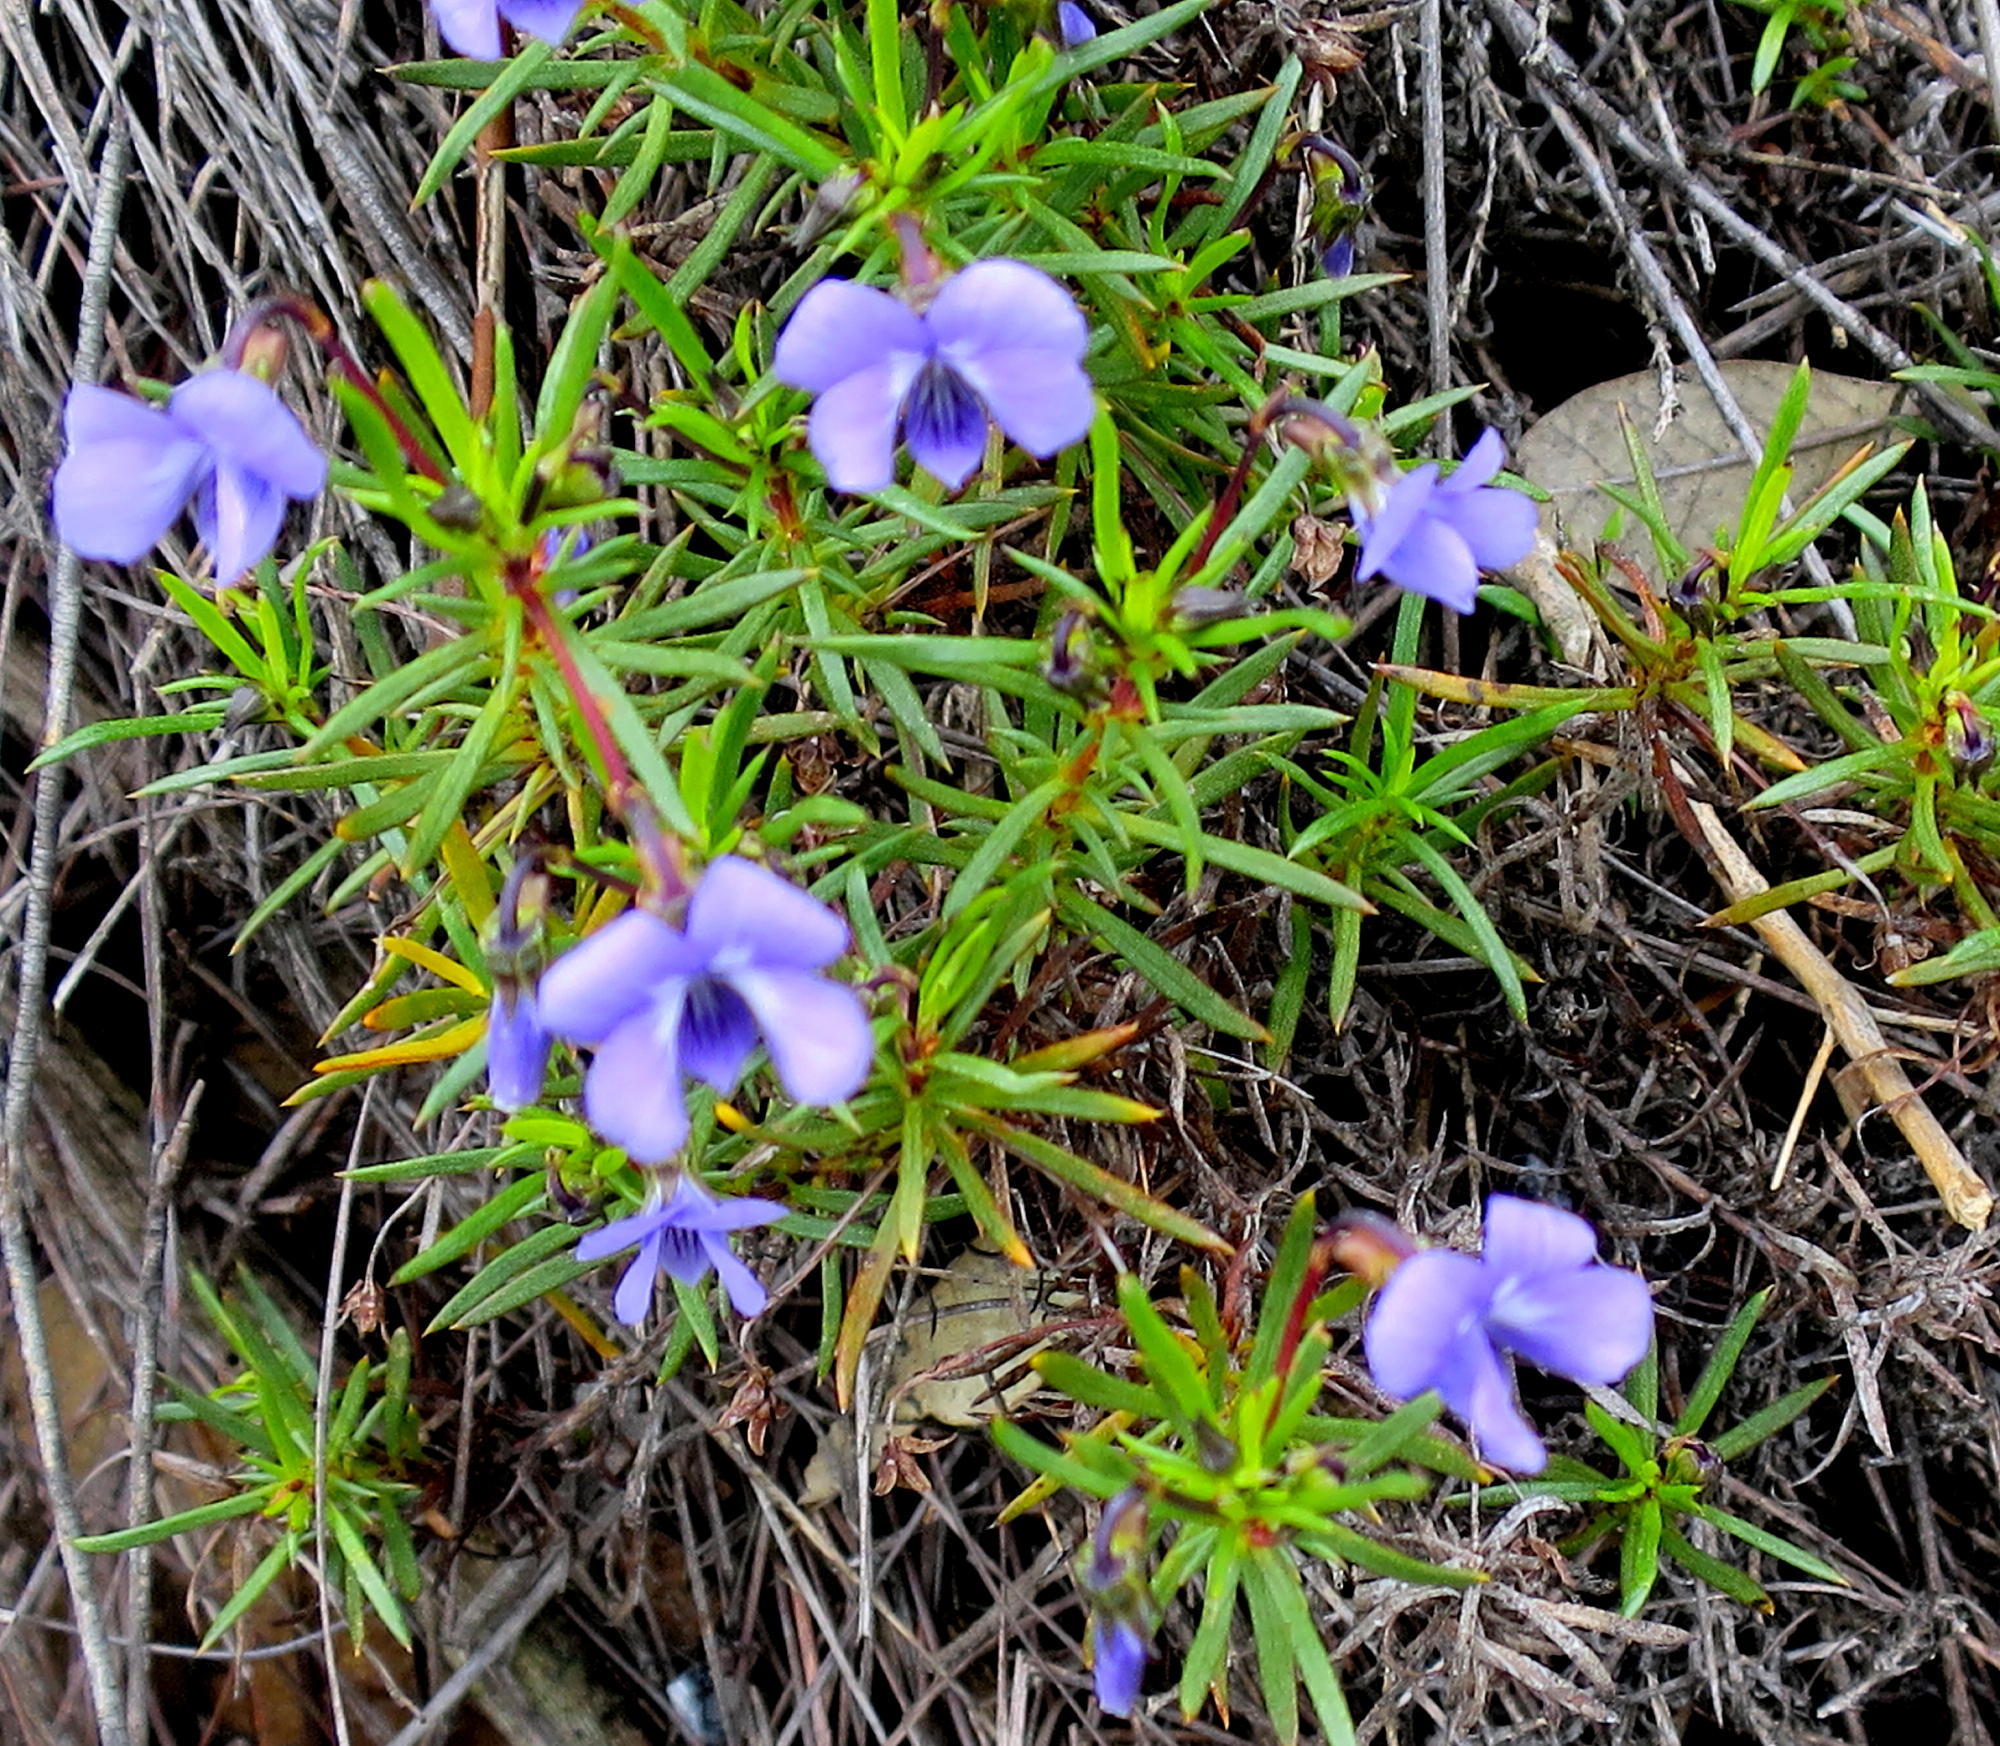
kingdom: Plantae
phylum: Tracheophyta
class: Magnoliopsida
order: Malpighiales
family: Violaceae
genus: Viola
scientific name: Viola decumbens
